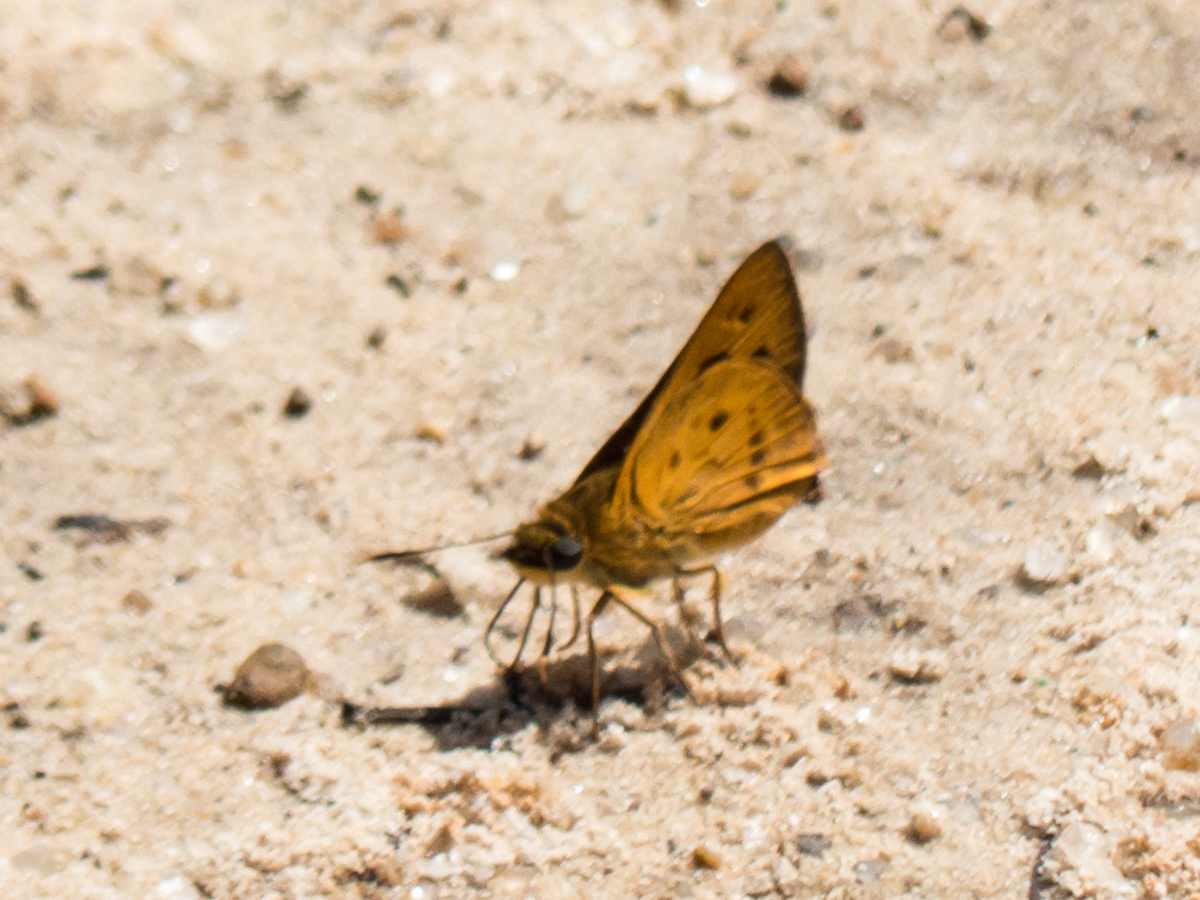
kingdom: Animalia
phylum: Arthropoda
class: Insecta
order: Lepidoptera
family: Hesperiidae
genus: Thoressa
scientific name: Thoressa masoni
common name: Golden ace
